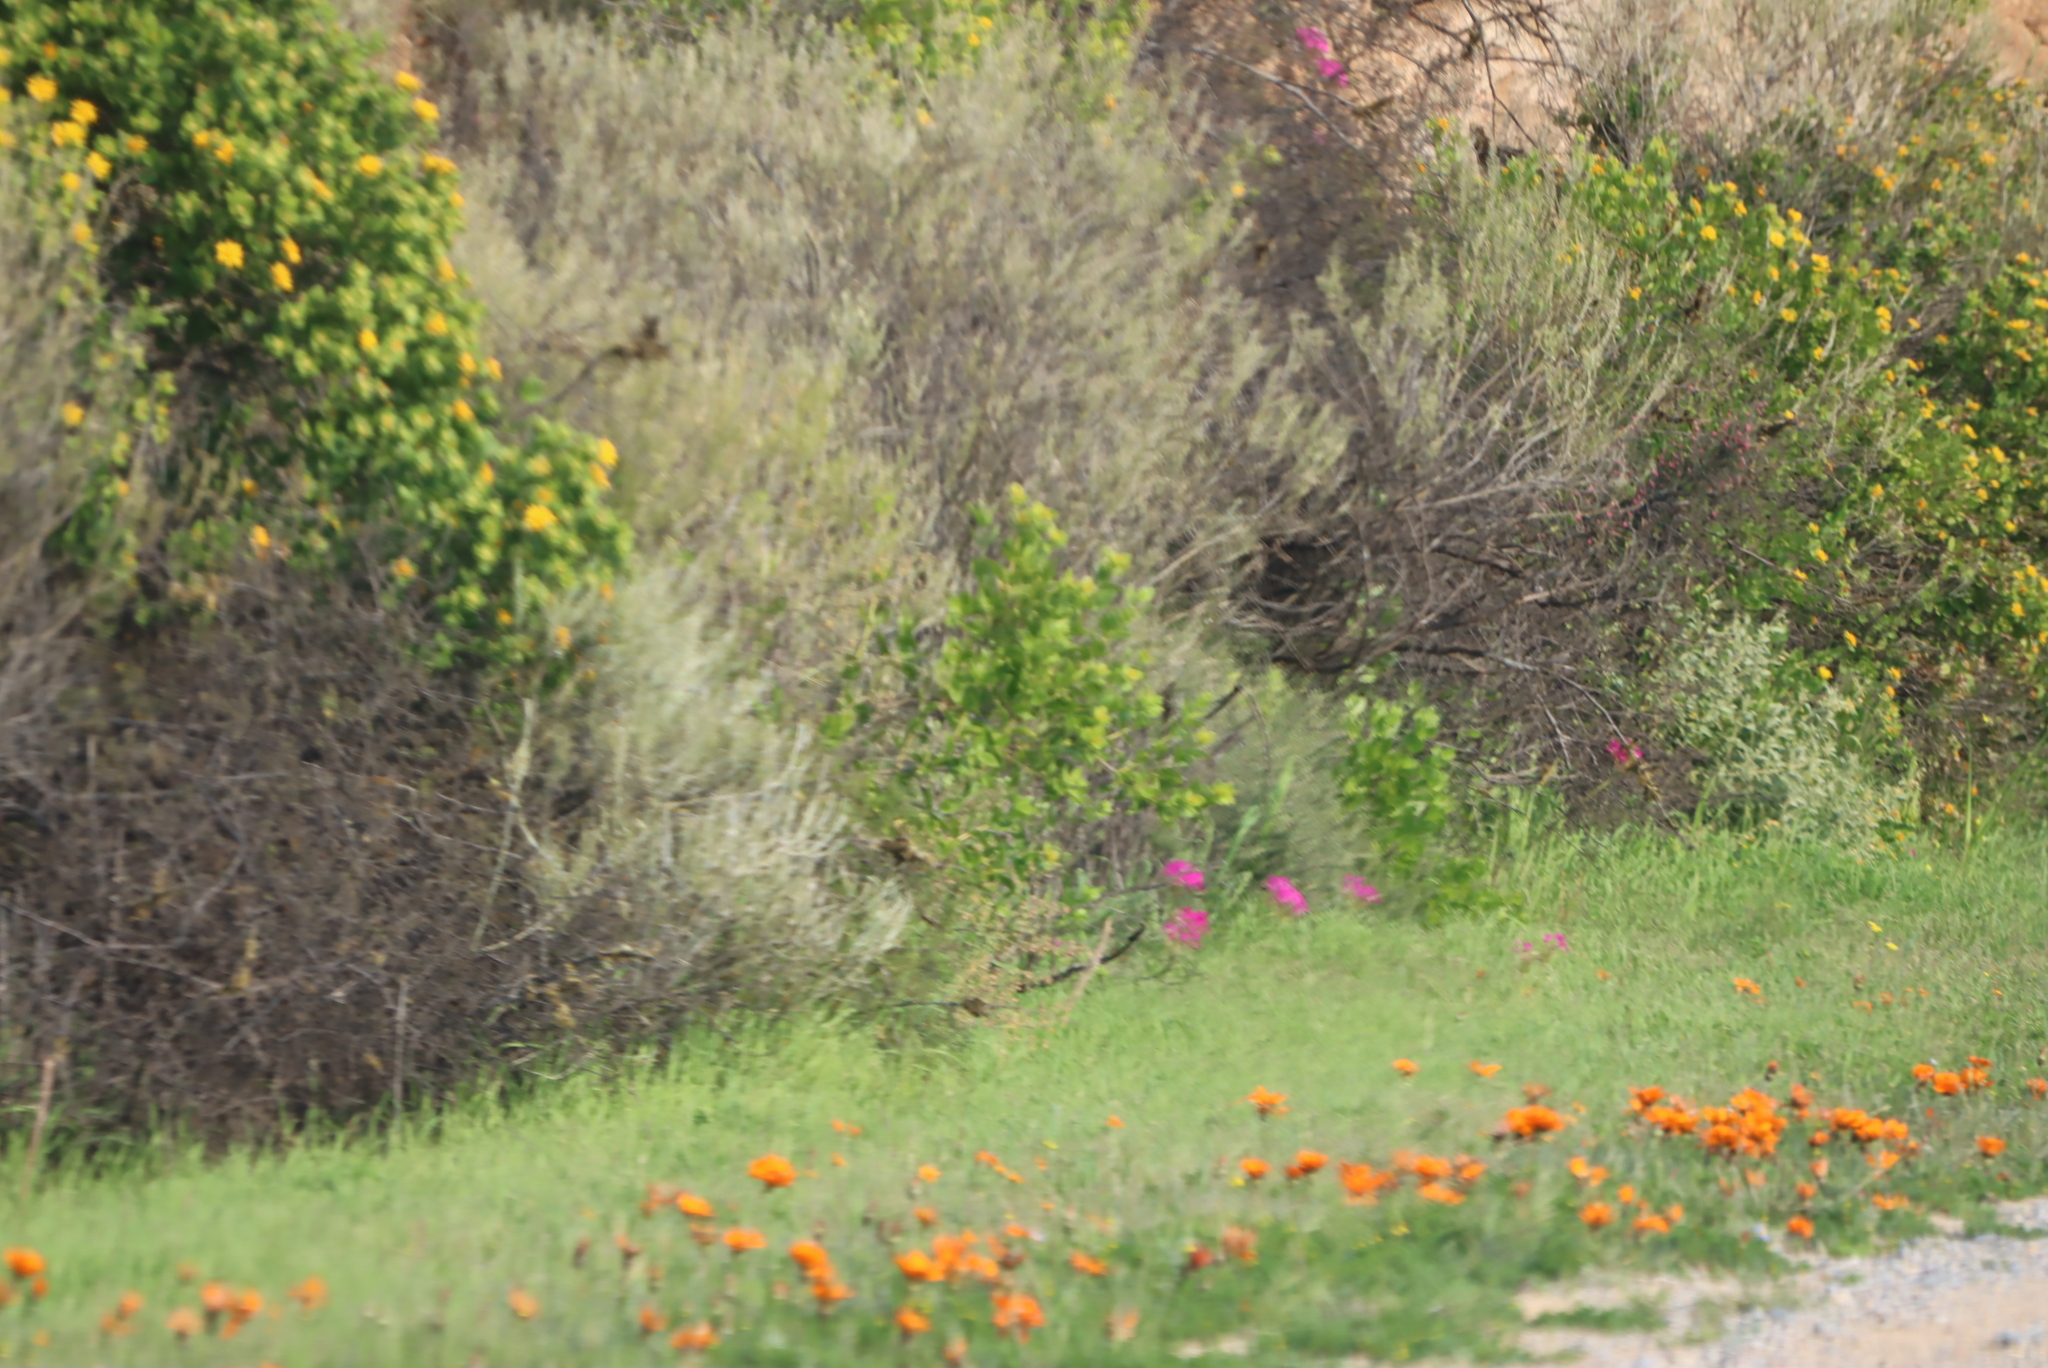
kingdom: Plantae
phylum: Tracheophyta
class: Magnoliopsida
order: Geraniales
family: Geraniaceae
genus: Pelargonium
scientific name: Pelargonium incrassatum
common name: Namaqualand beauty
